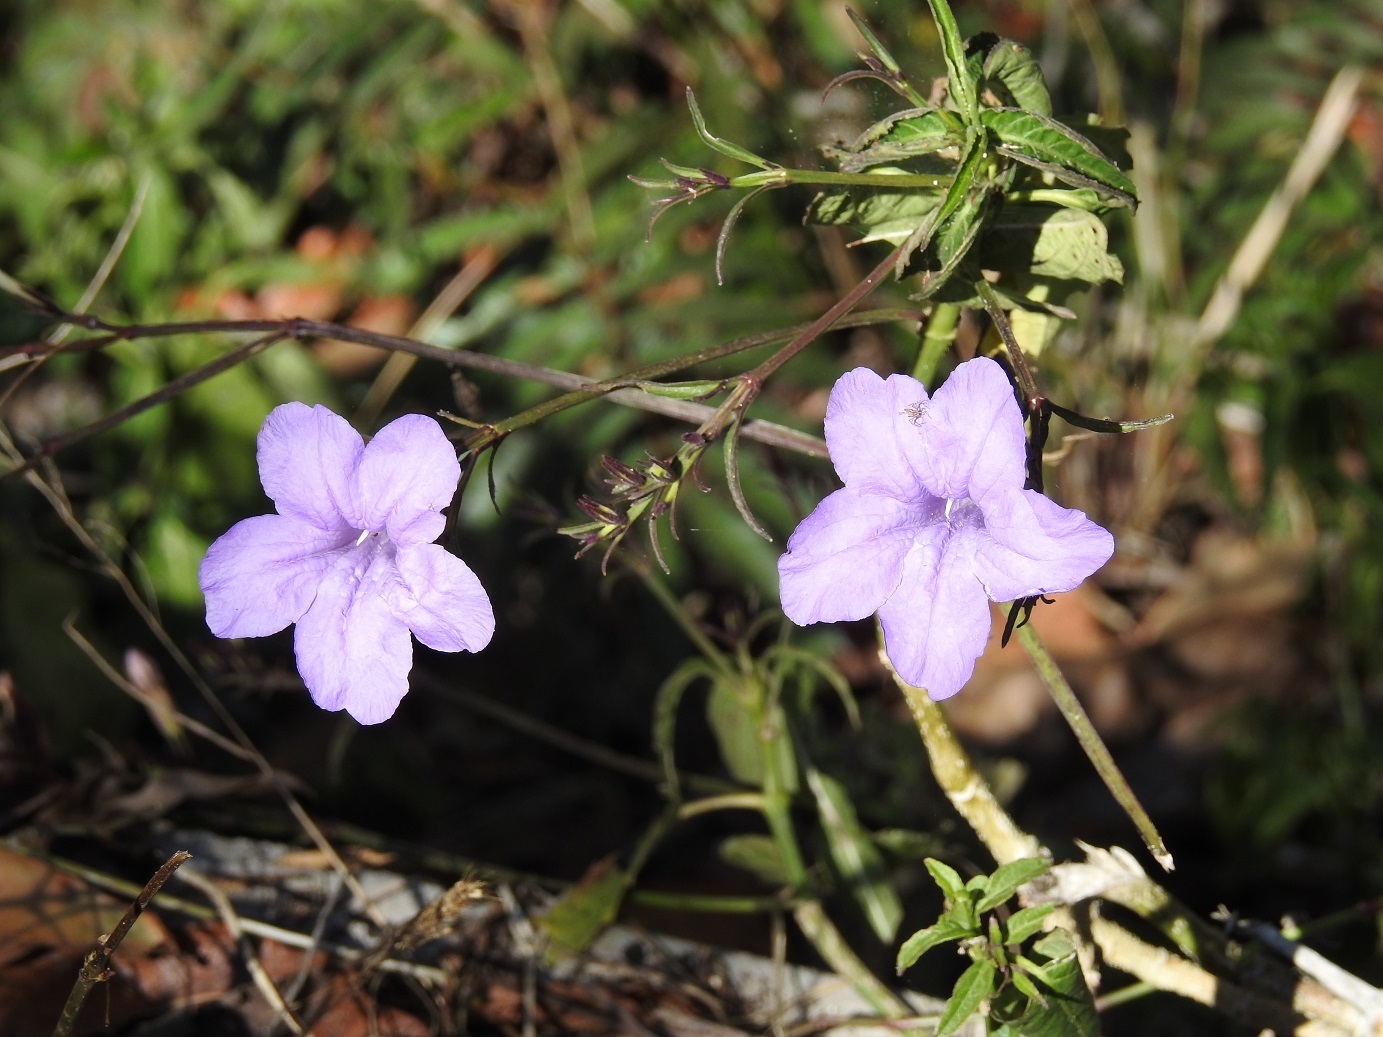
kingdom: Plantae
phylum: Tracheophyta
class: Magnoliopsida
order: Lamiales
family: Acanthaceae
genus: Ruellia
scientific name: Ruellia breedlovei
